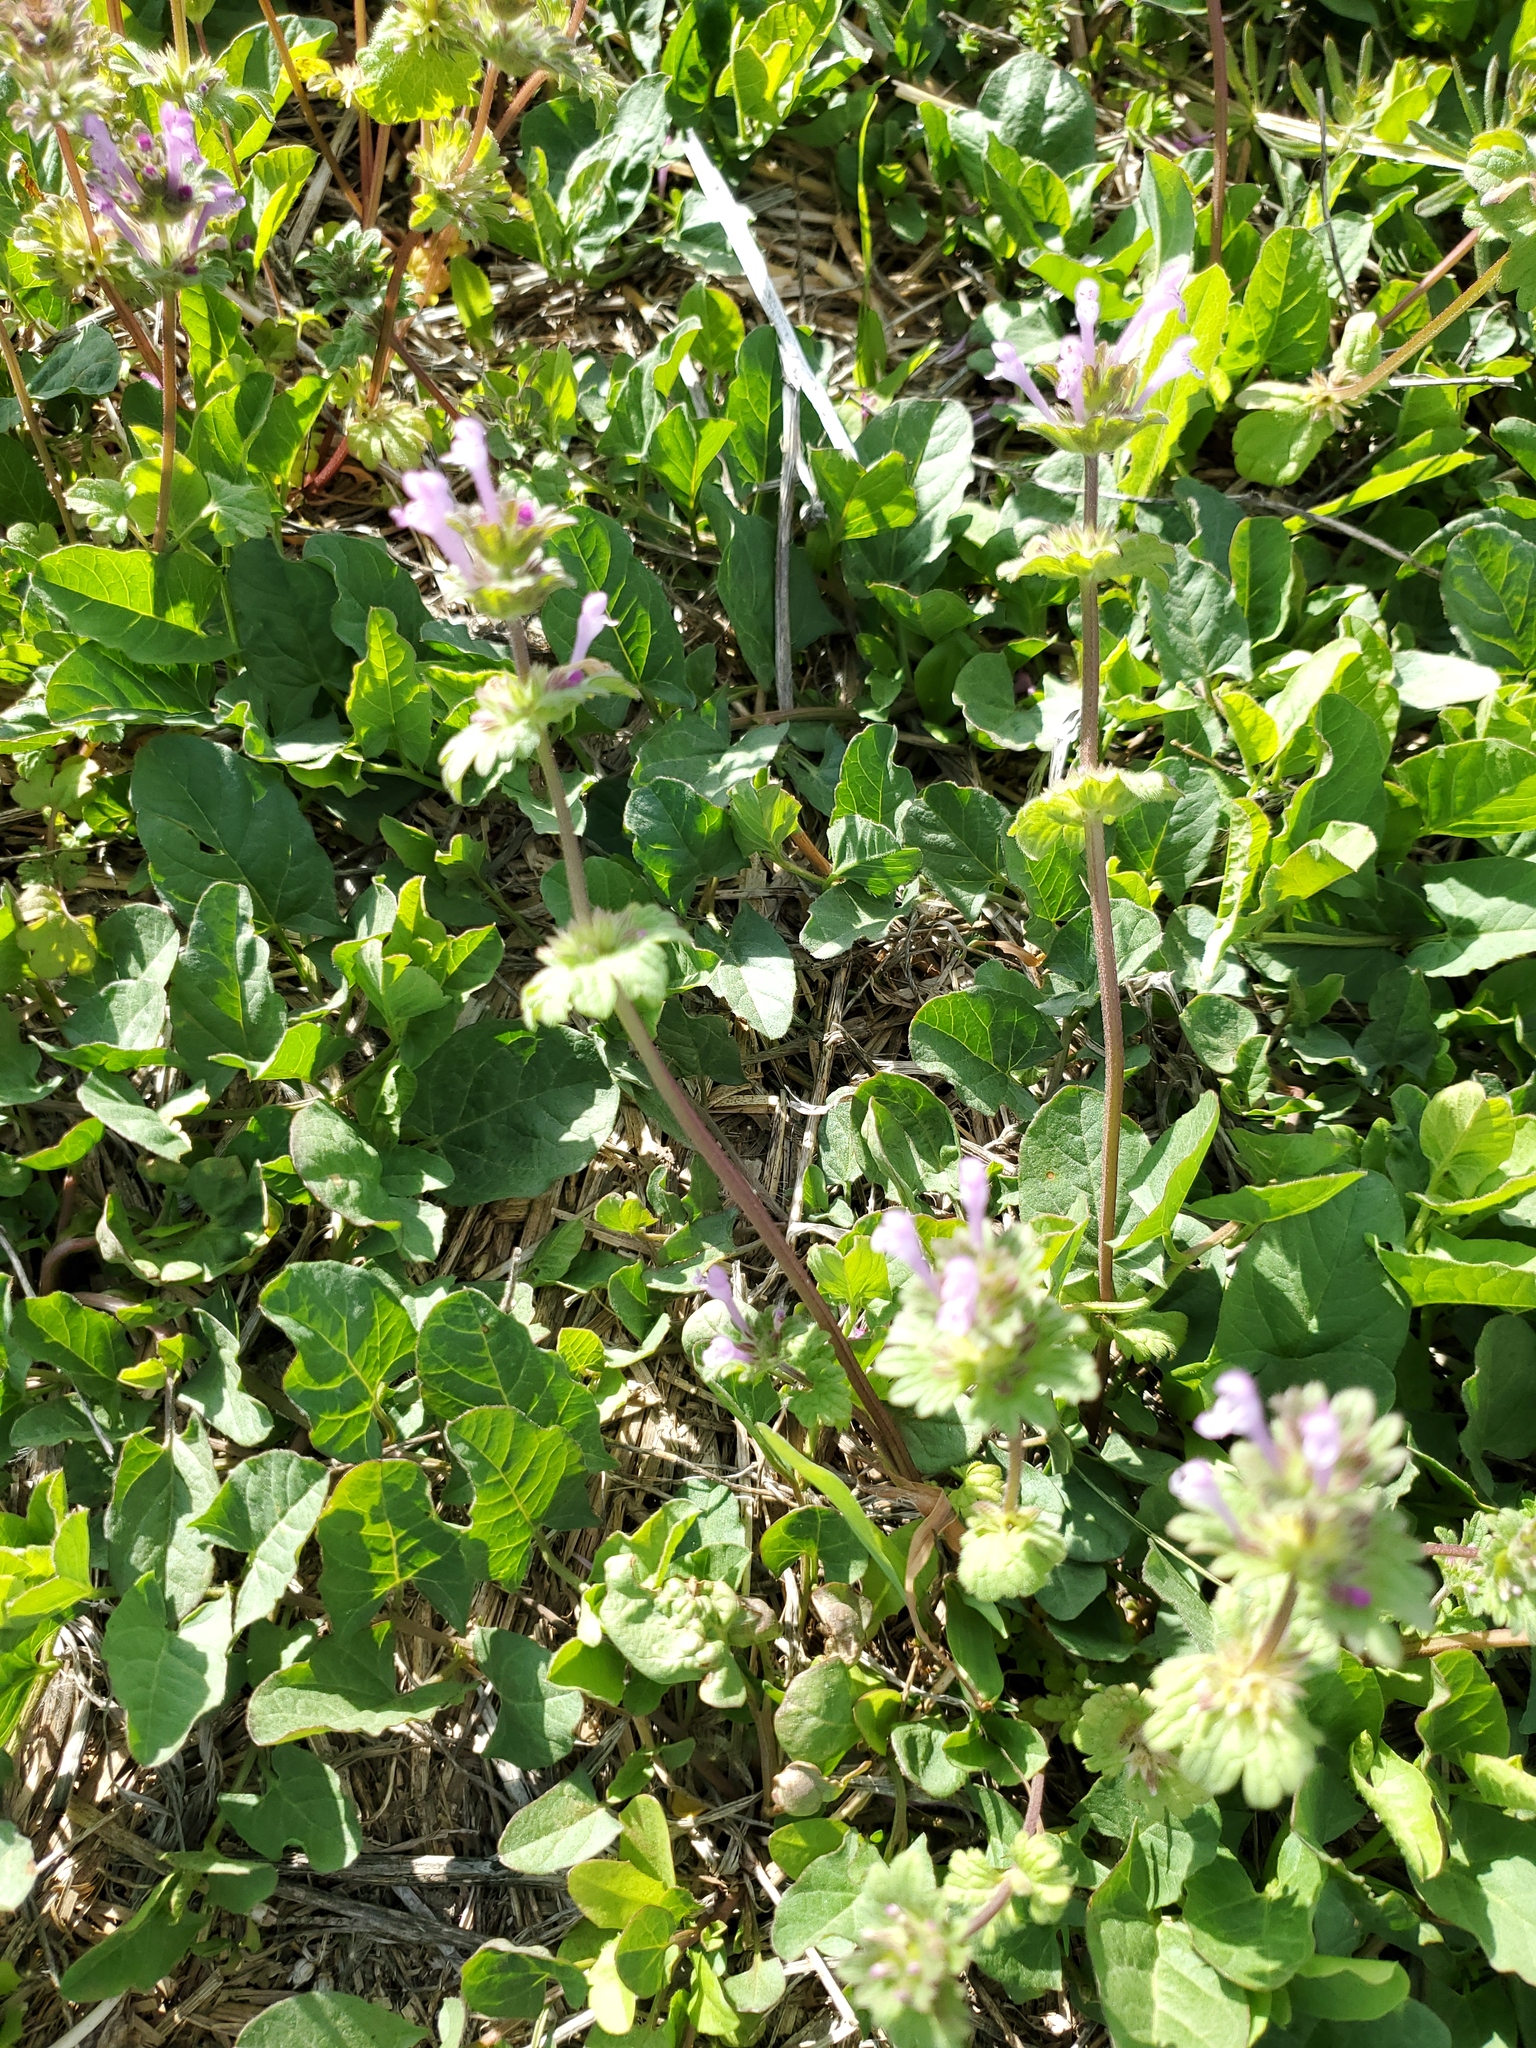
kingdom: Plantae
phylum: Tracheophyta
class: Magnoliopsida
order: Lamiales
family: Lamiaceae
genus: Lamium
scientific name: Lamium amplexicaule
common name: Henbit dead-nettle
